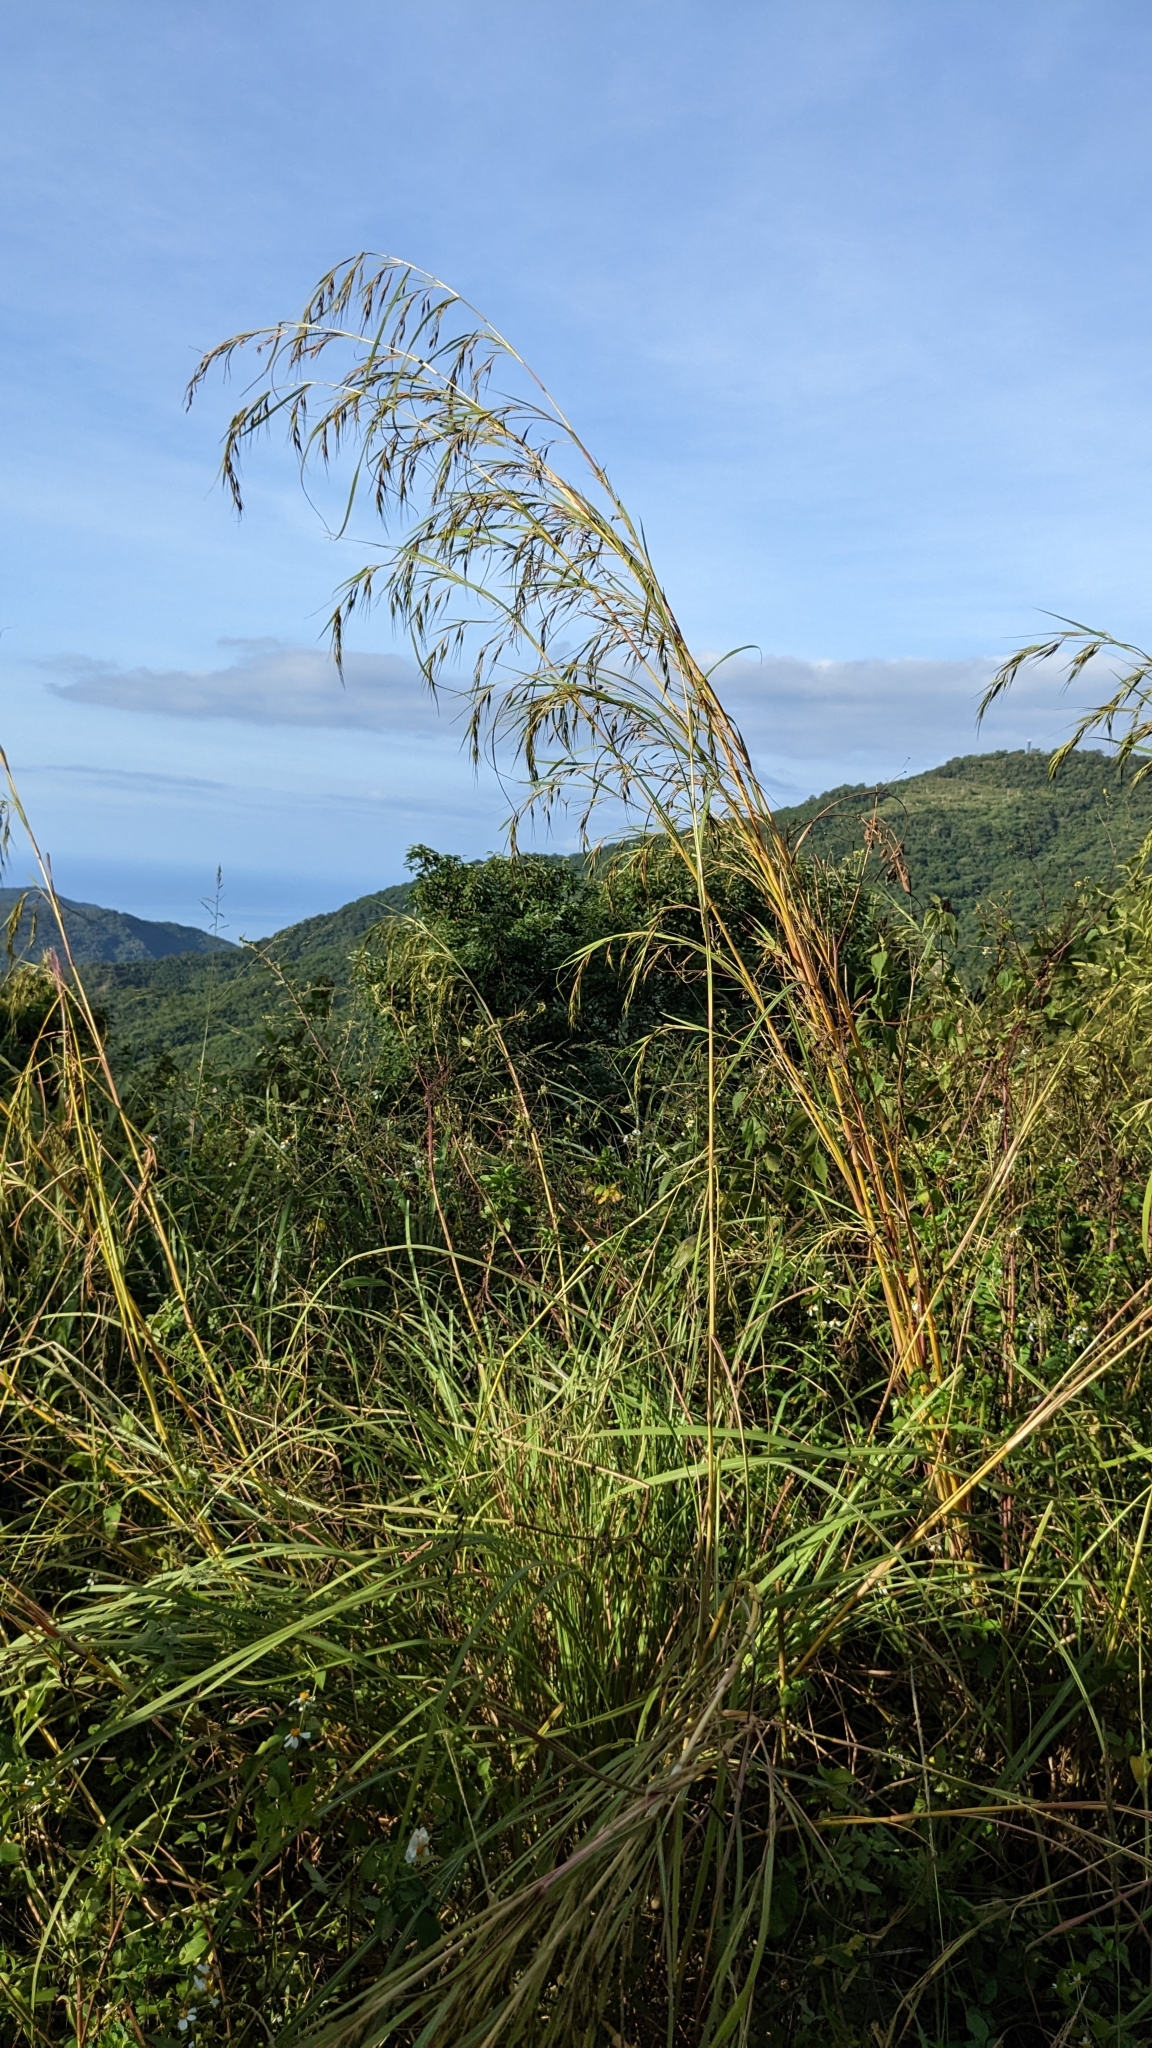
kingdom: Plantae
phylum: Tracheophyta
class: Liliopsida
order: Poales
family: Poaceae
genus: Themeda
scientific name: Themeda caudata
